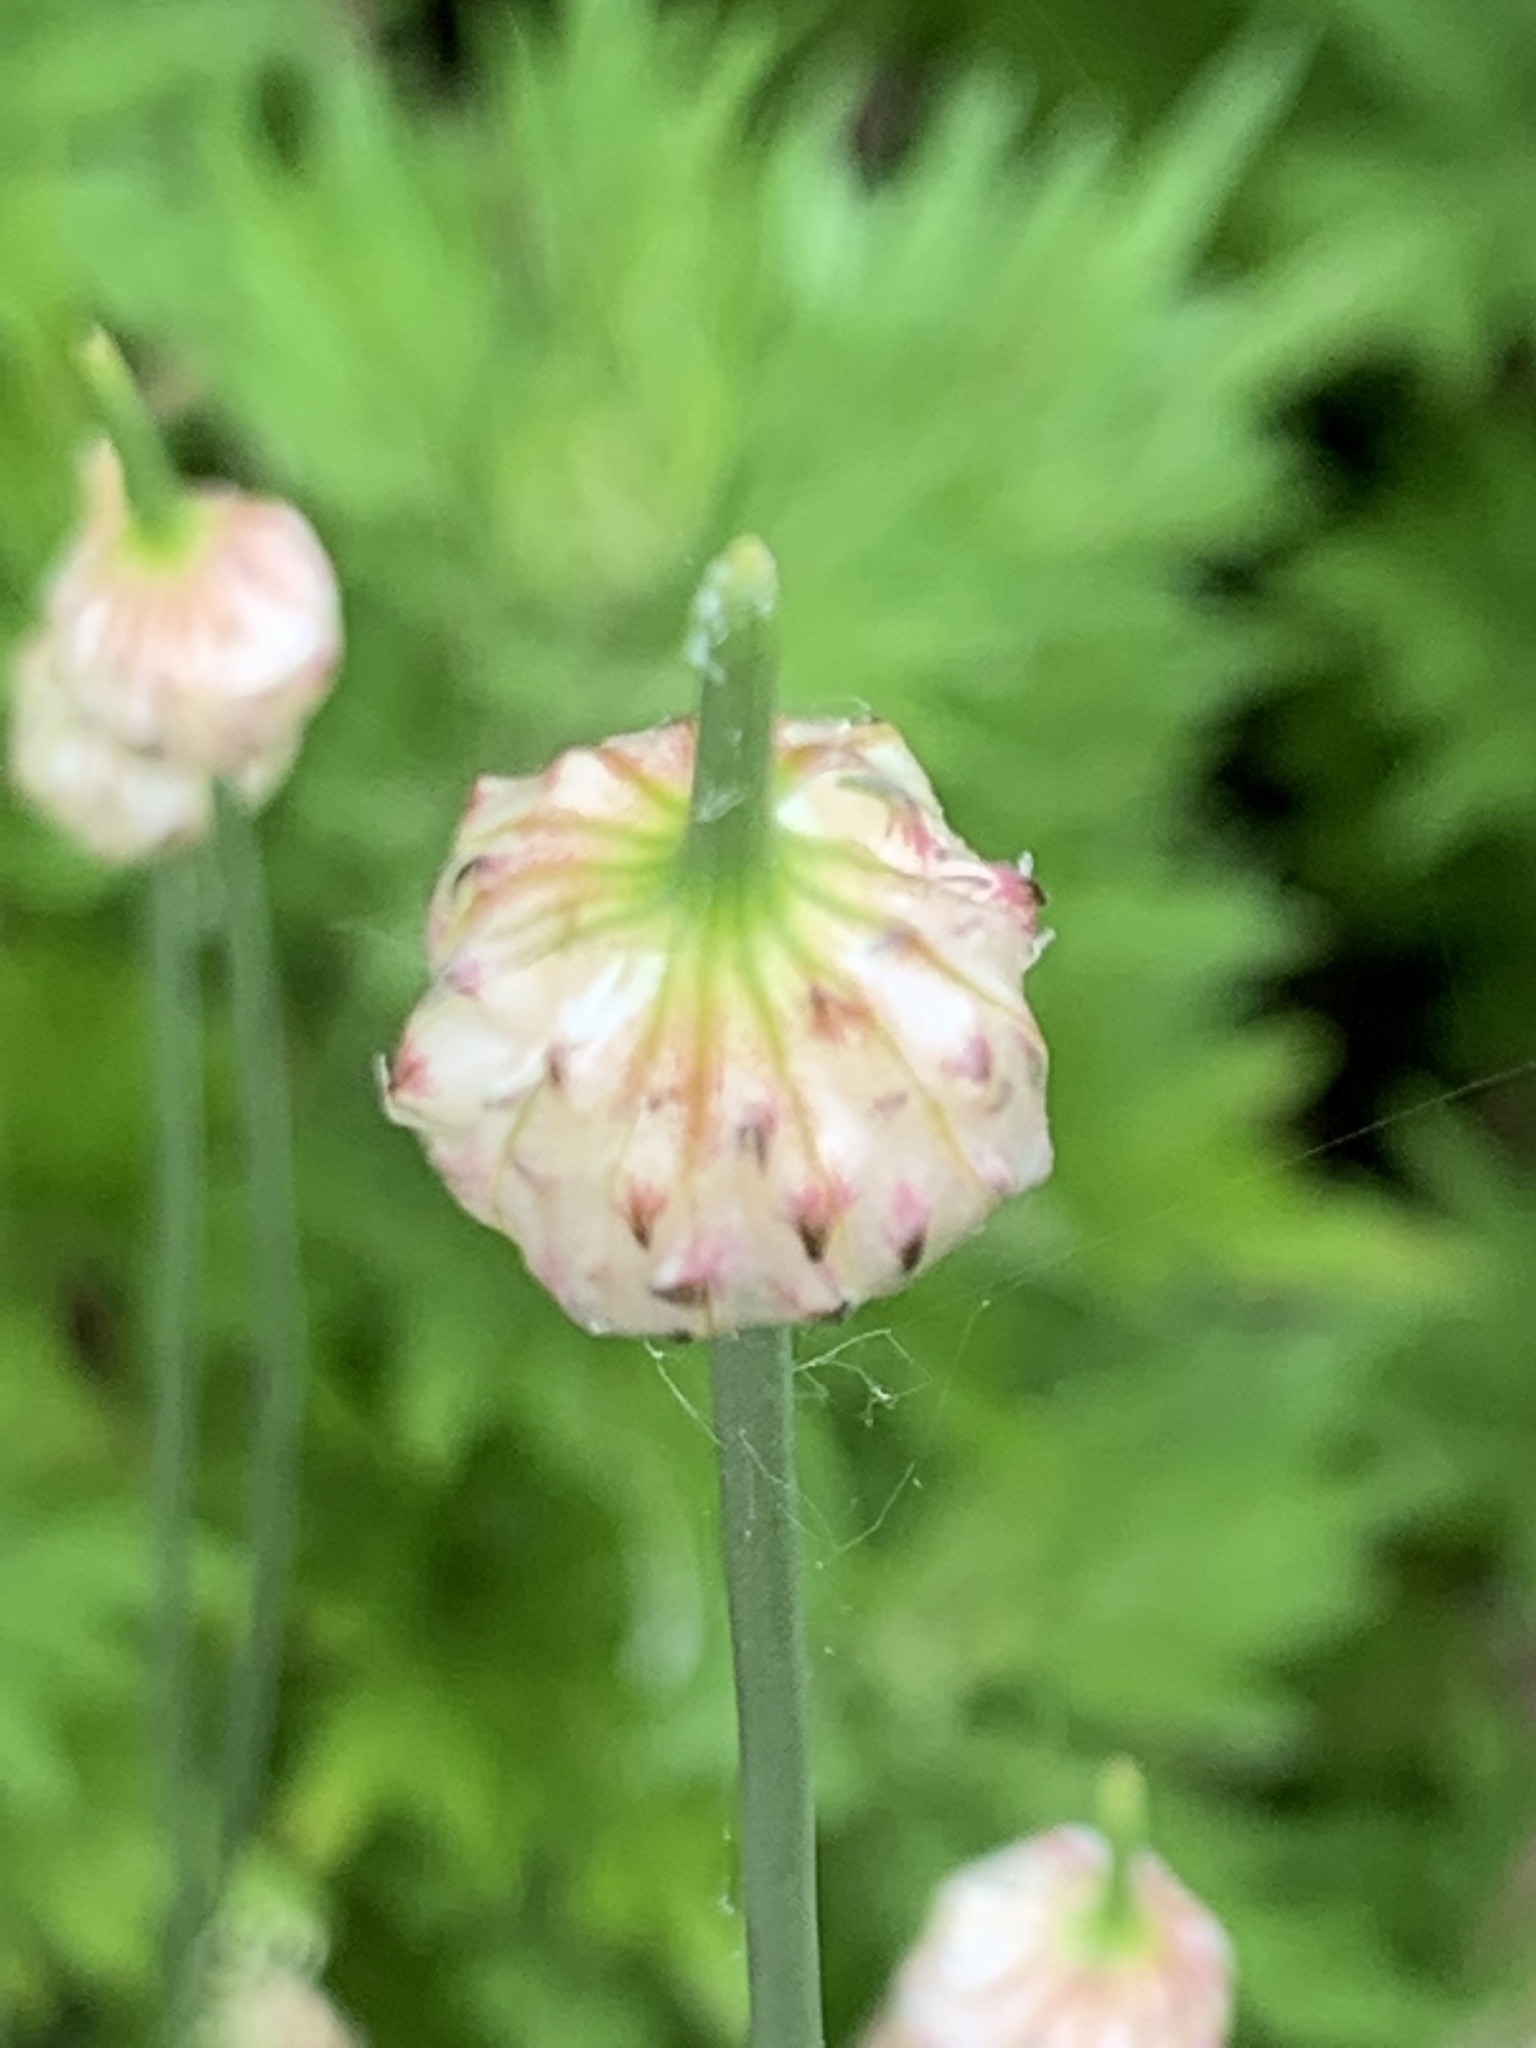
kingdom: Plantae
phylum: Tracheophyta
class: Liliopsida
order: Asparagales
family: Amaryllidaceae
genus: Allium
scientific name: Allium vineale
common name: Crow garlic
